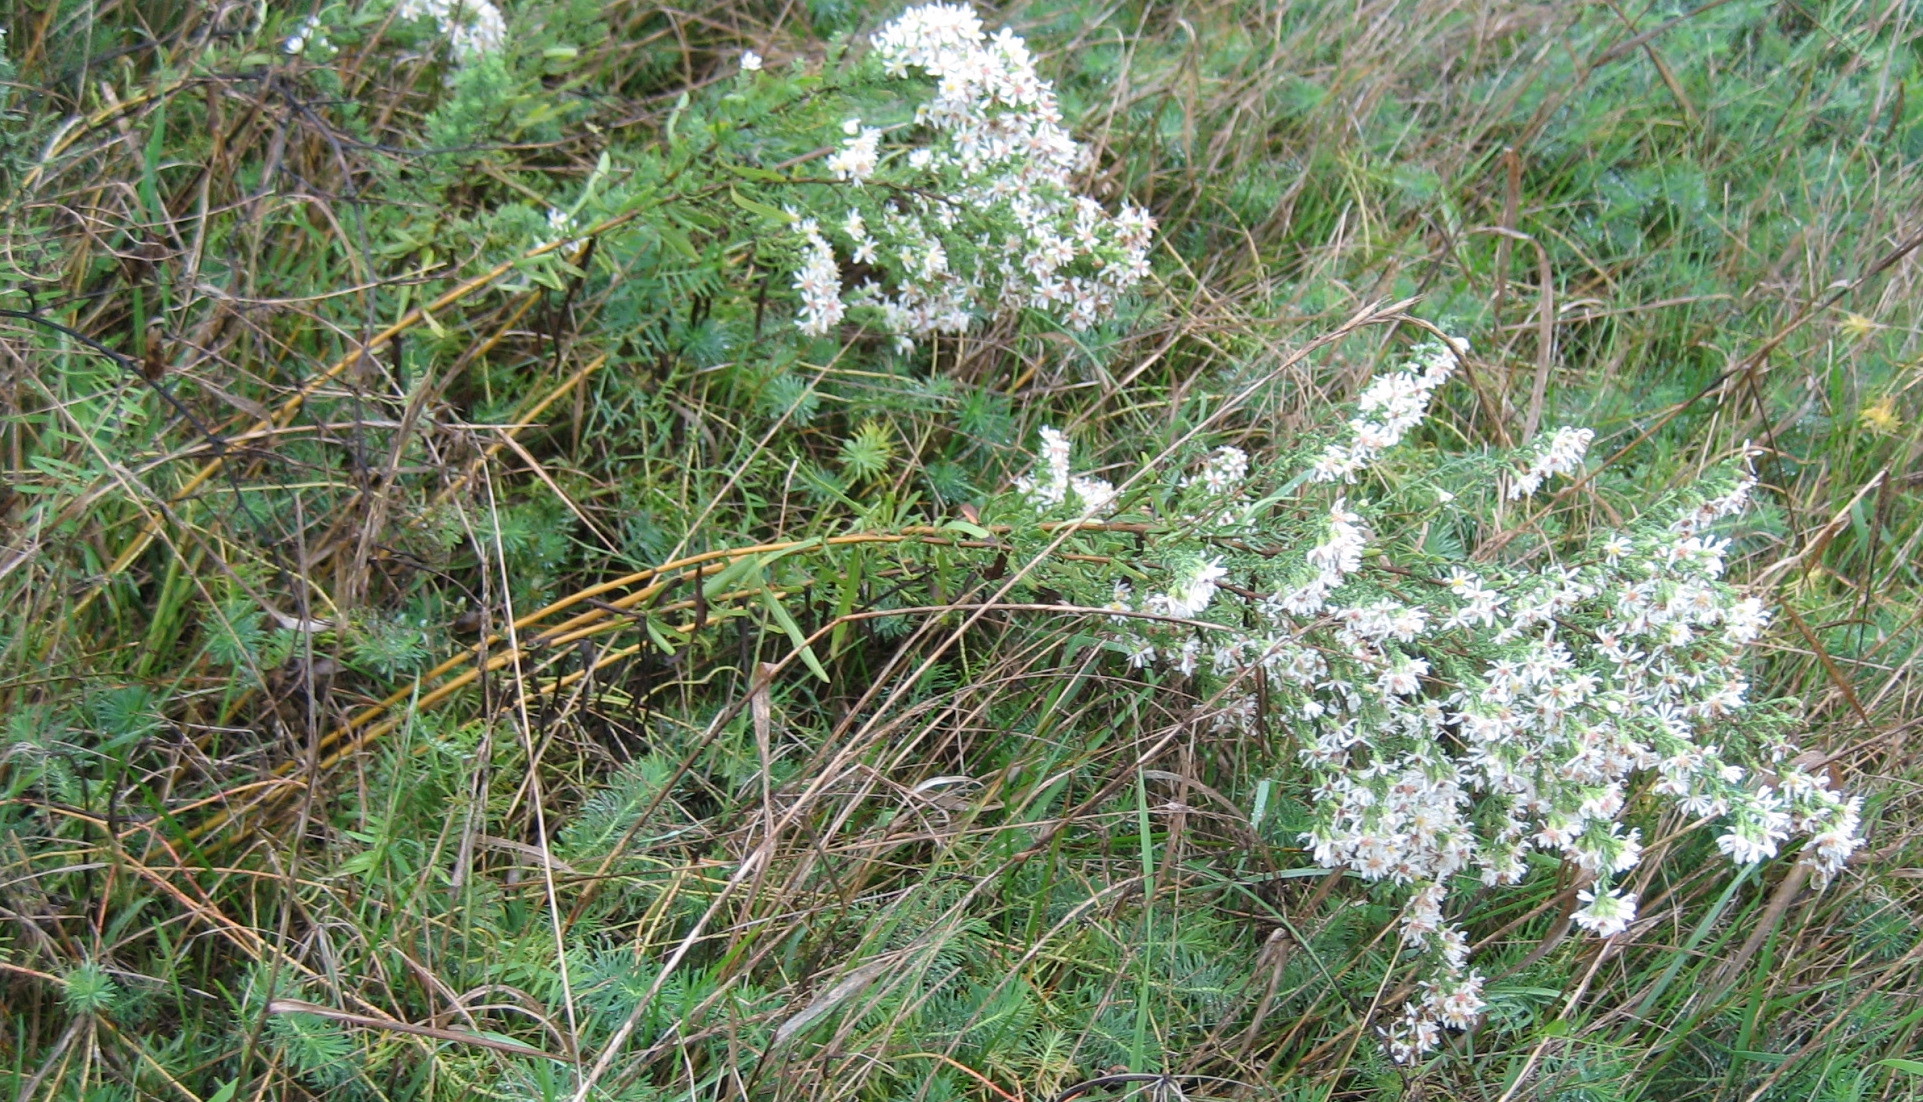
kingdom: Plantae
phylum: Tracheophyta
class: Magnoliopsida
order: Asterales
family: Asteraceae
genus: Symphyotrichum
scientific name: Symphyotrichum ericoides
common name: Heath aster
